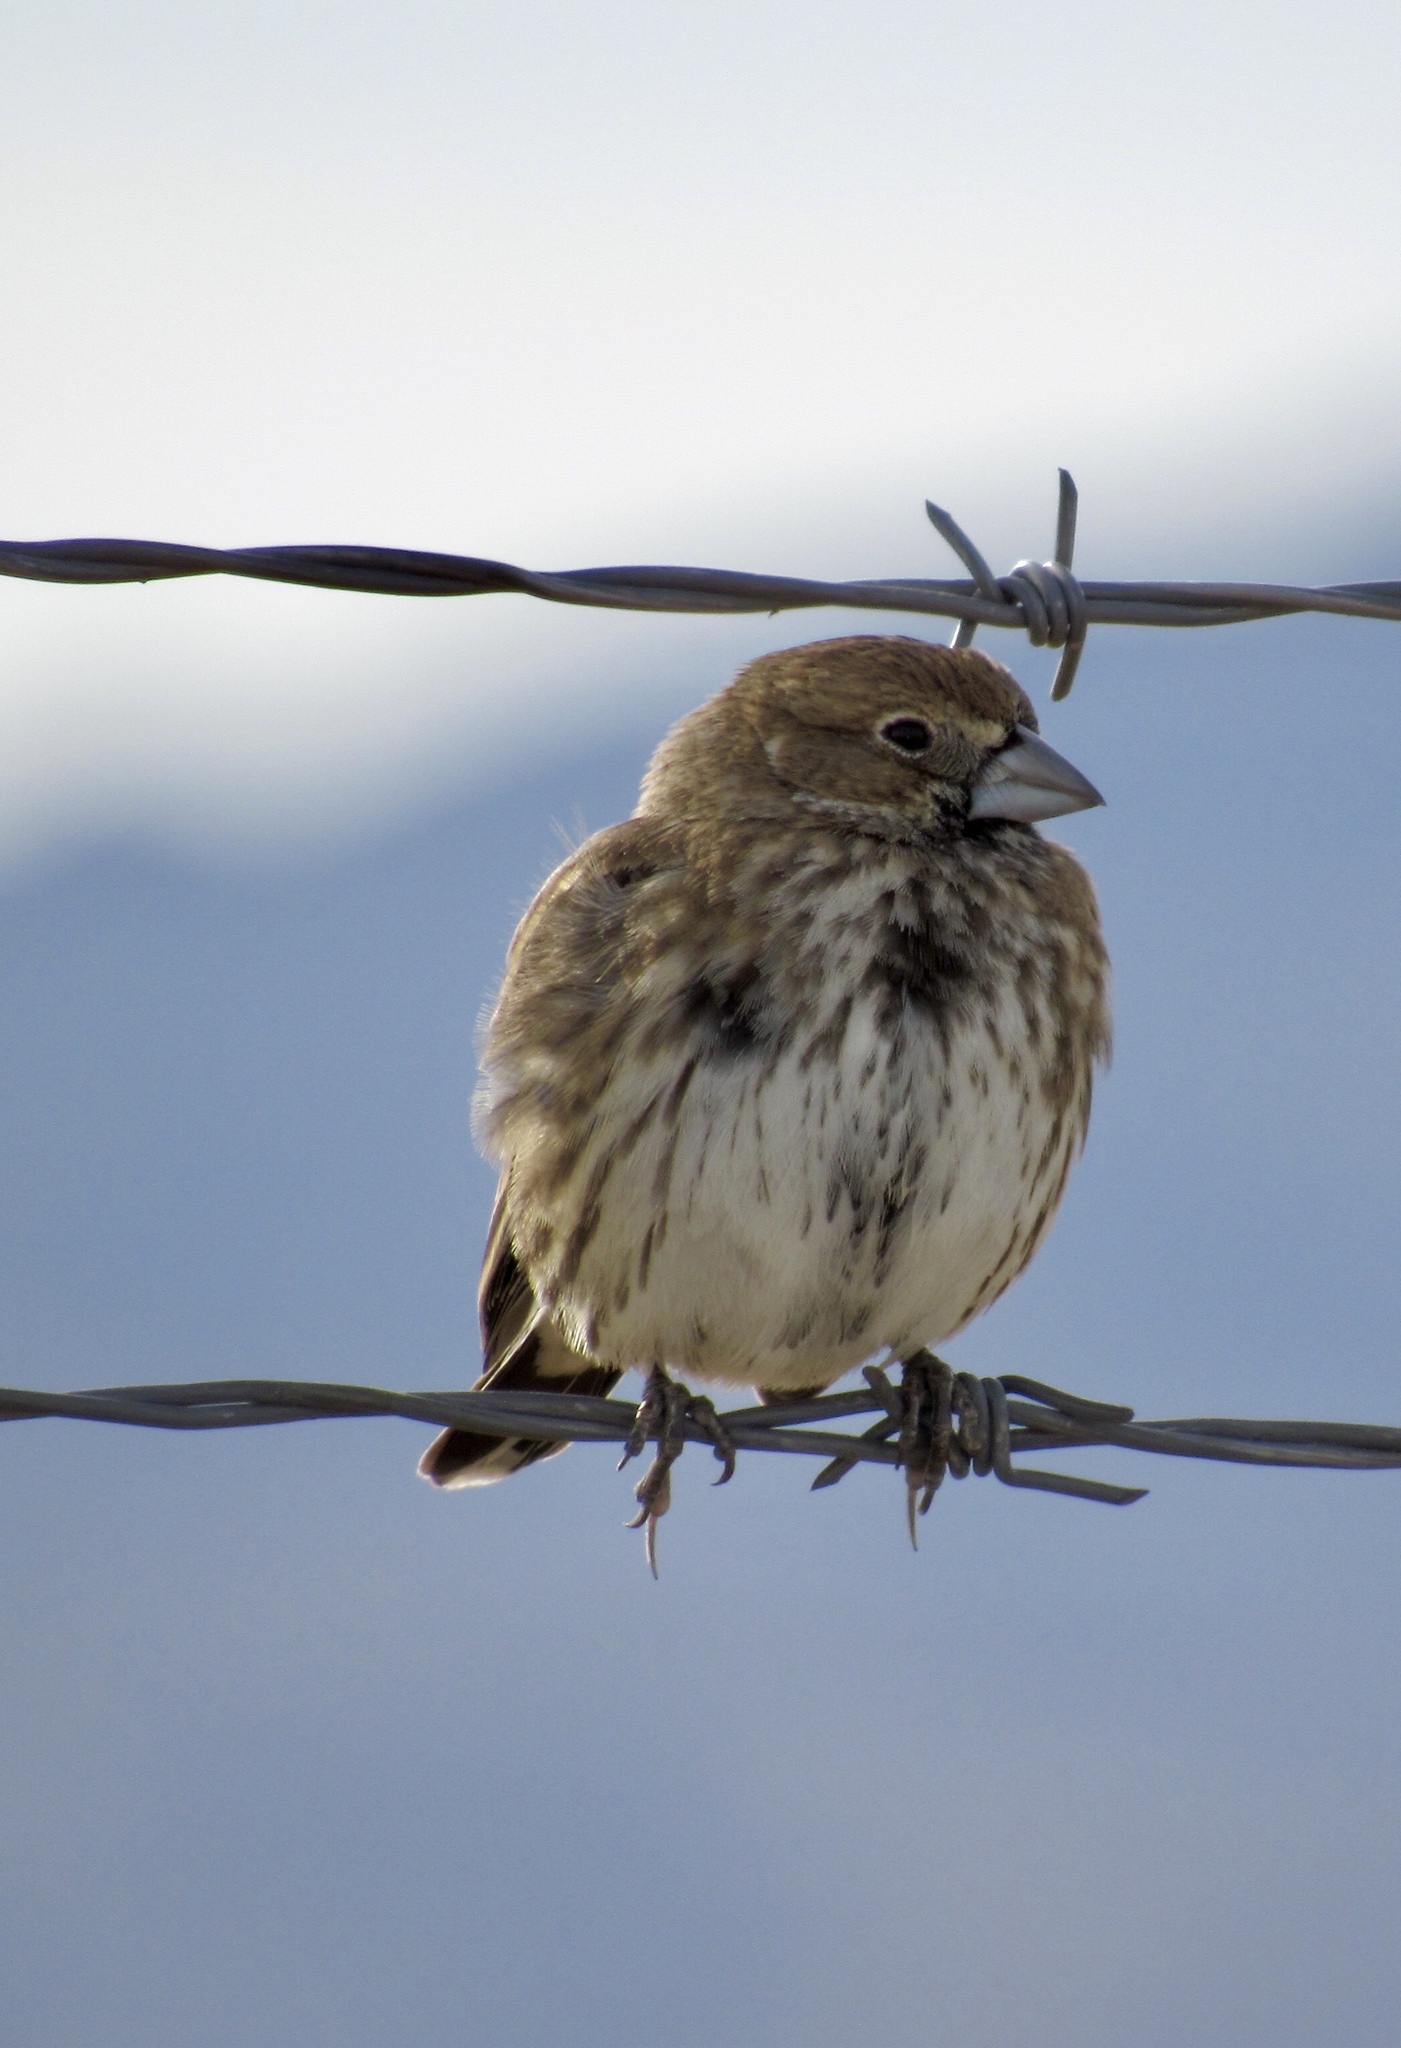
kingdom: Animalia
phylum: Chordata
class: Aves
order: Passeriformes
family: Passerellidae
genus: Calamospiza
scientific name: Calamospiza melanocorys
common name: Lark bunting
